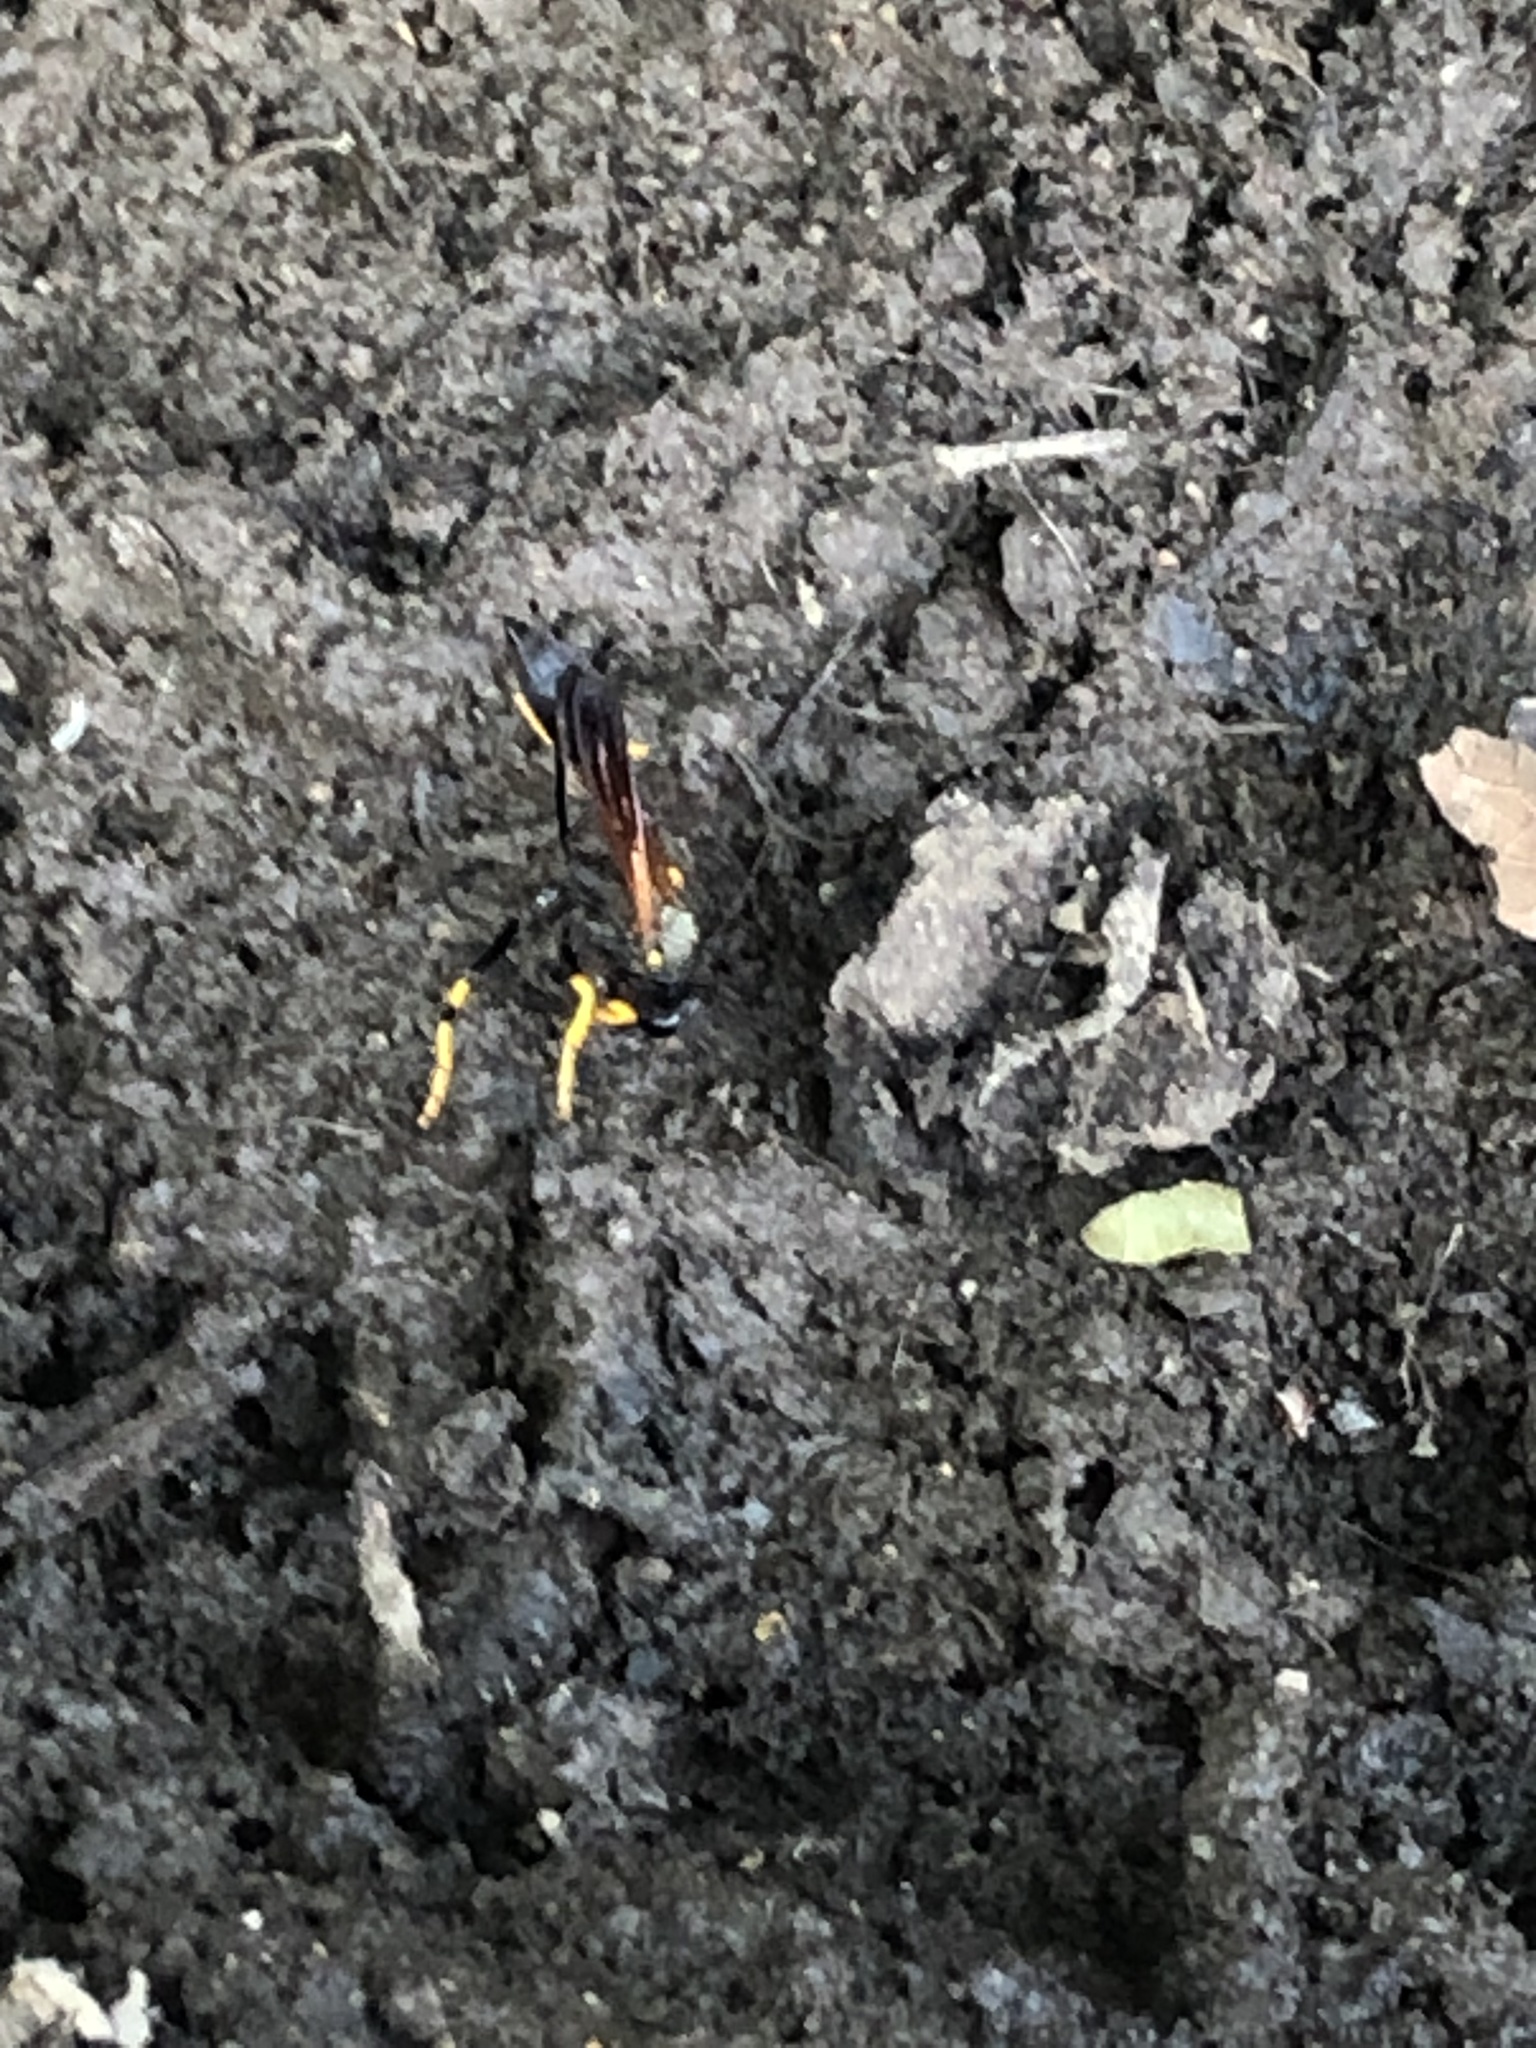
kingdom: Animalia
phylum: Arthropoda
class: Insecta
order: Hymenoptera
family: Sphecidae
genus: Sceliphron
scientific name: Sceliphron caementarium
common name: Mud dauber
